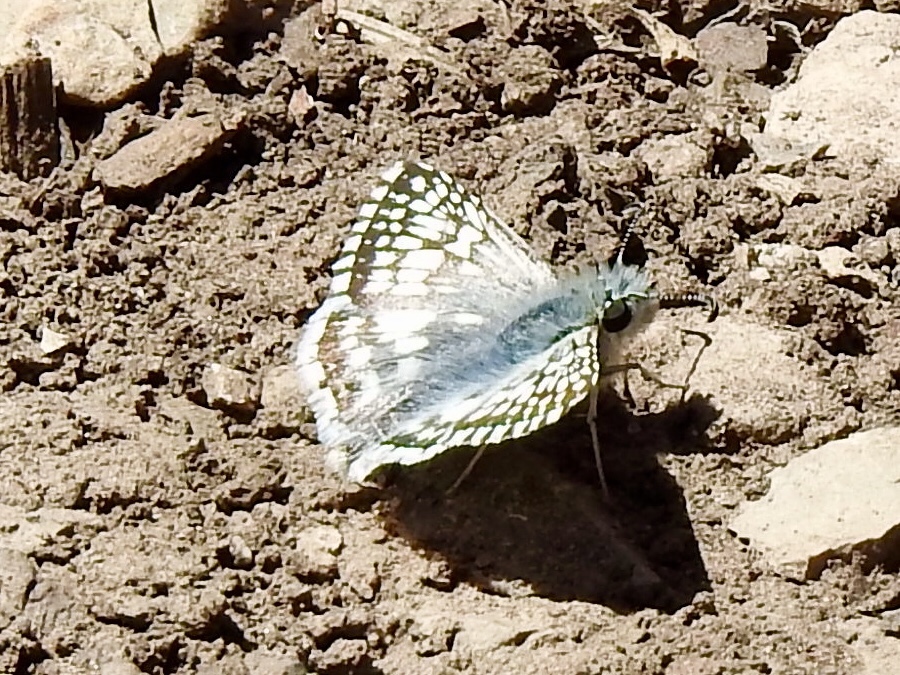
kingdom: Animalia
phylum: Arthropoda
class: Insecta
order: Lepidoptera
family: Hesperiidae
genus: Burnsius
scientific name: Burnsius
